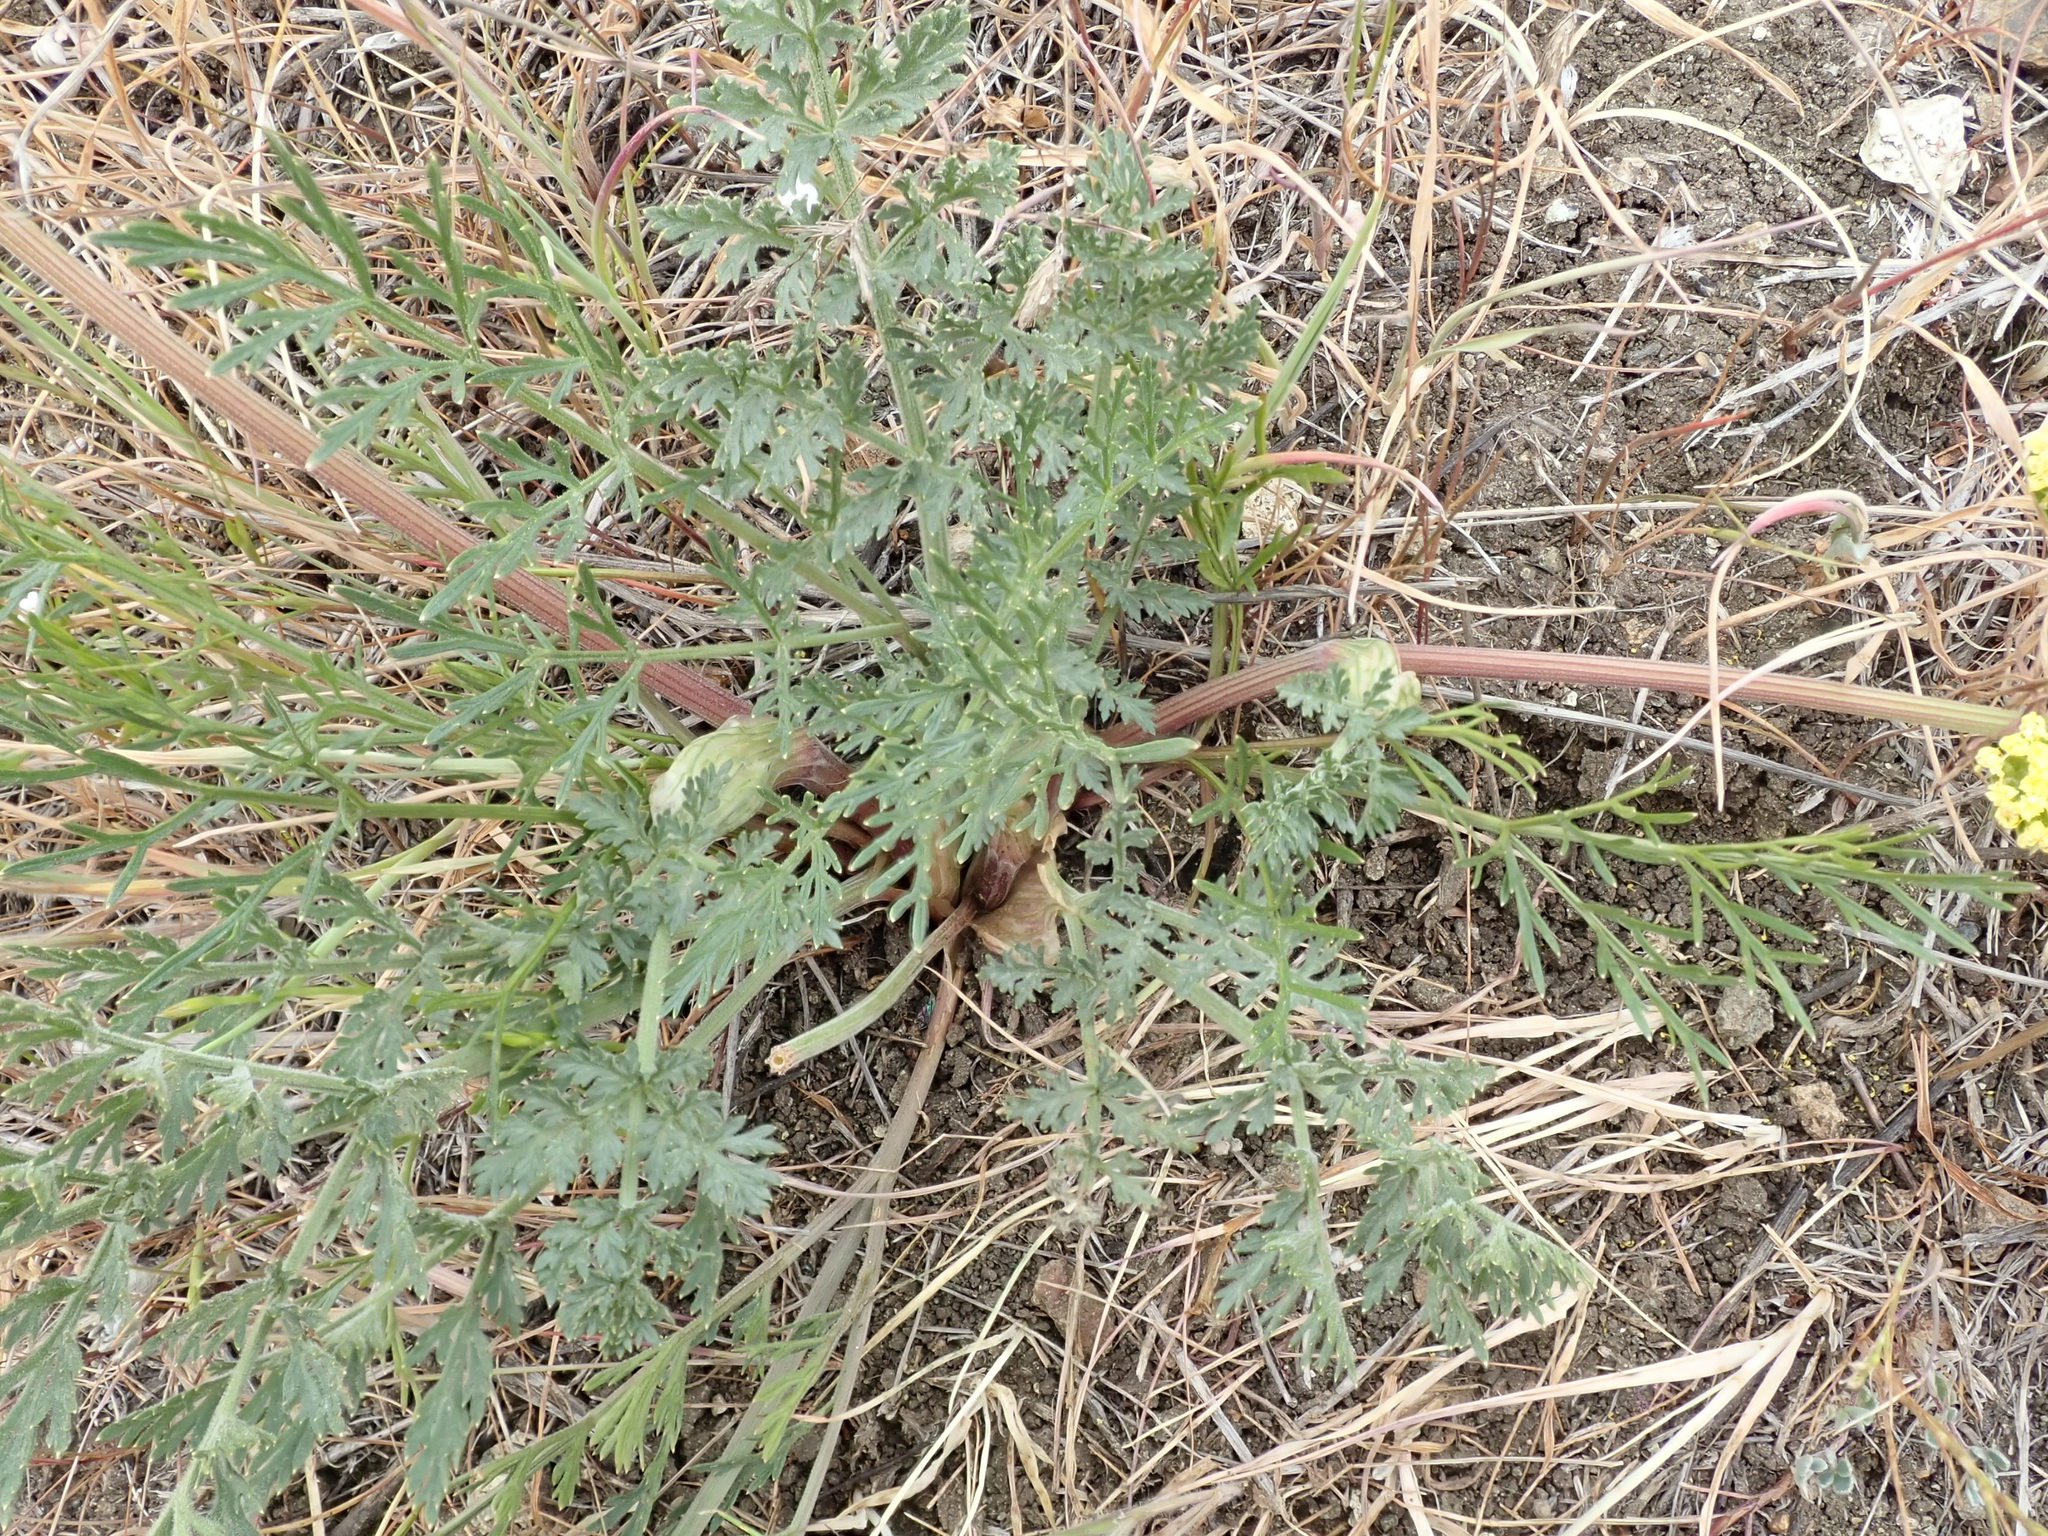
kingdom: Plantae
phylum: Tracheophyta
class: Magnoliopsida
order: Apiales
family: Apiaceae
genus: Lomatium
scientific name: Lomatium utriculatum
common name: Fine-leaf desert-parsley
